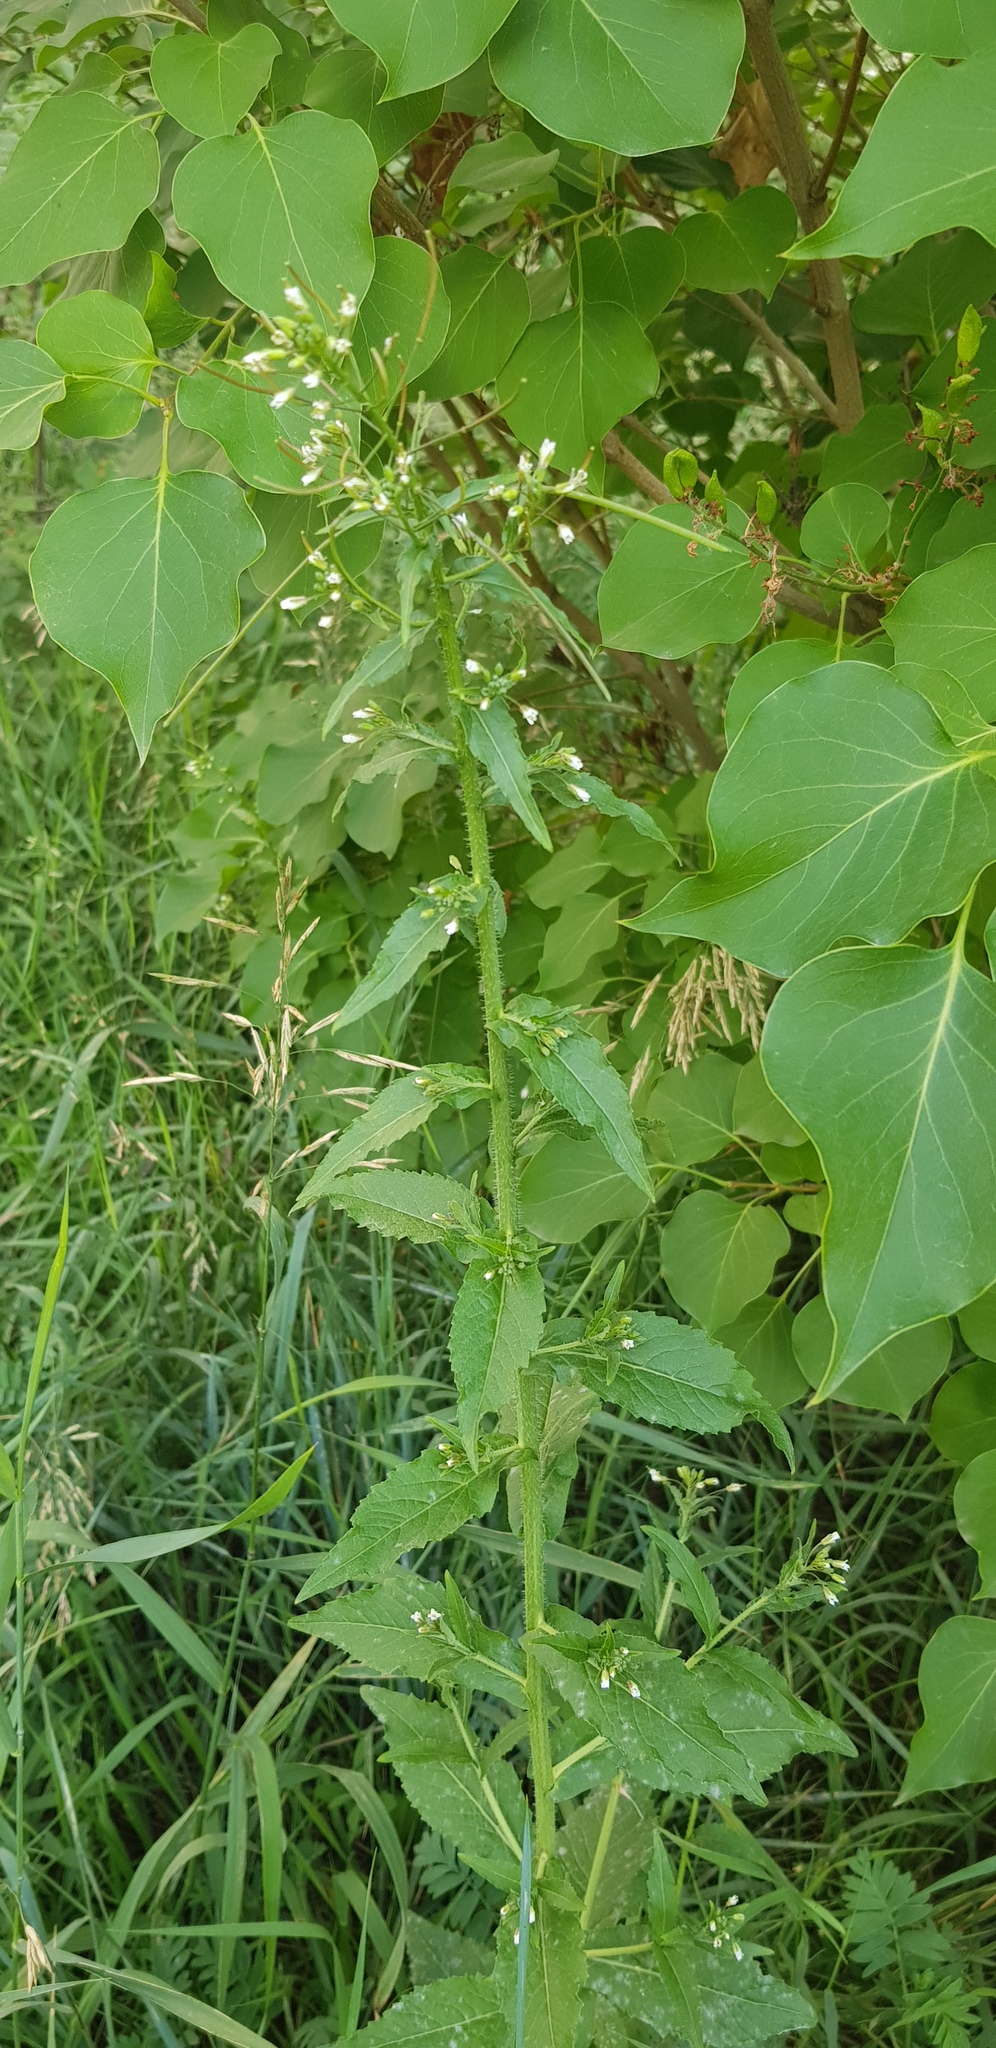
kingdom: Plantae
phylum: Tracheophyta
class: Magnoliopsida
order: Brassicales
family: Brassicaceae
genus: Catolobus
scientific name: Catolobus pendulus
